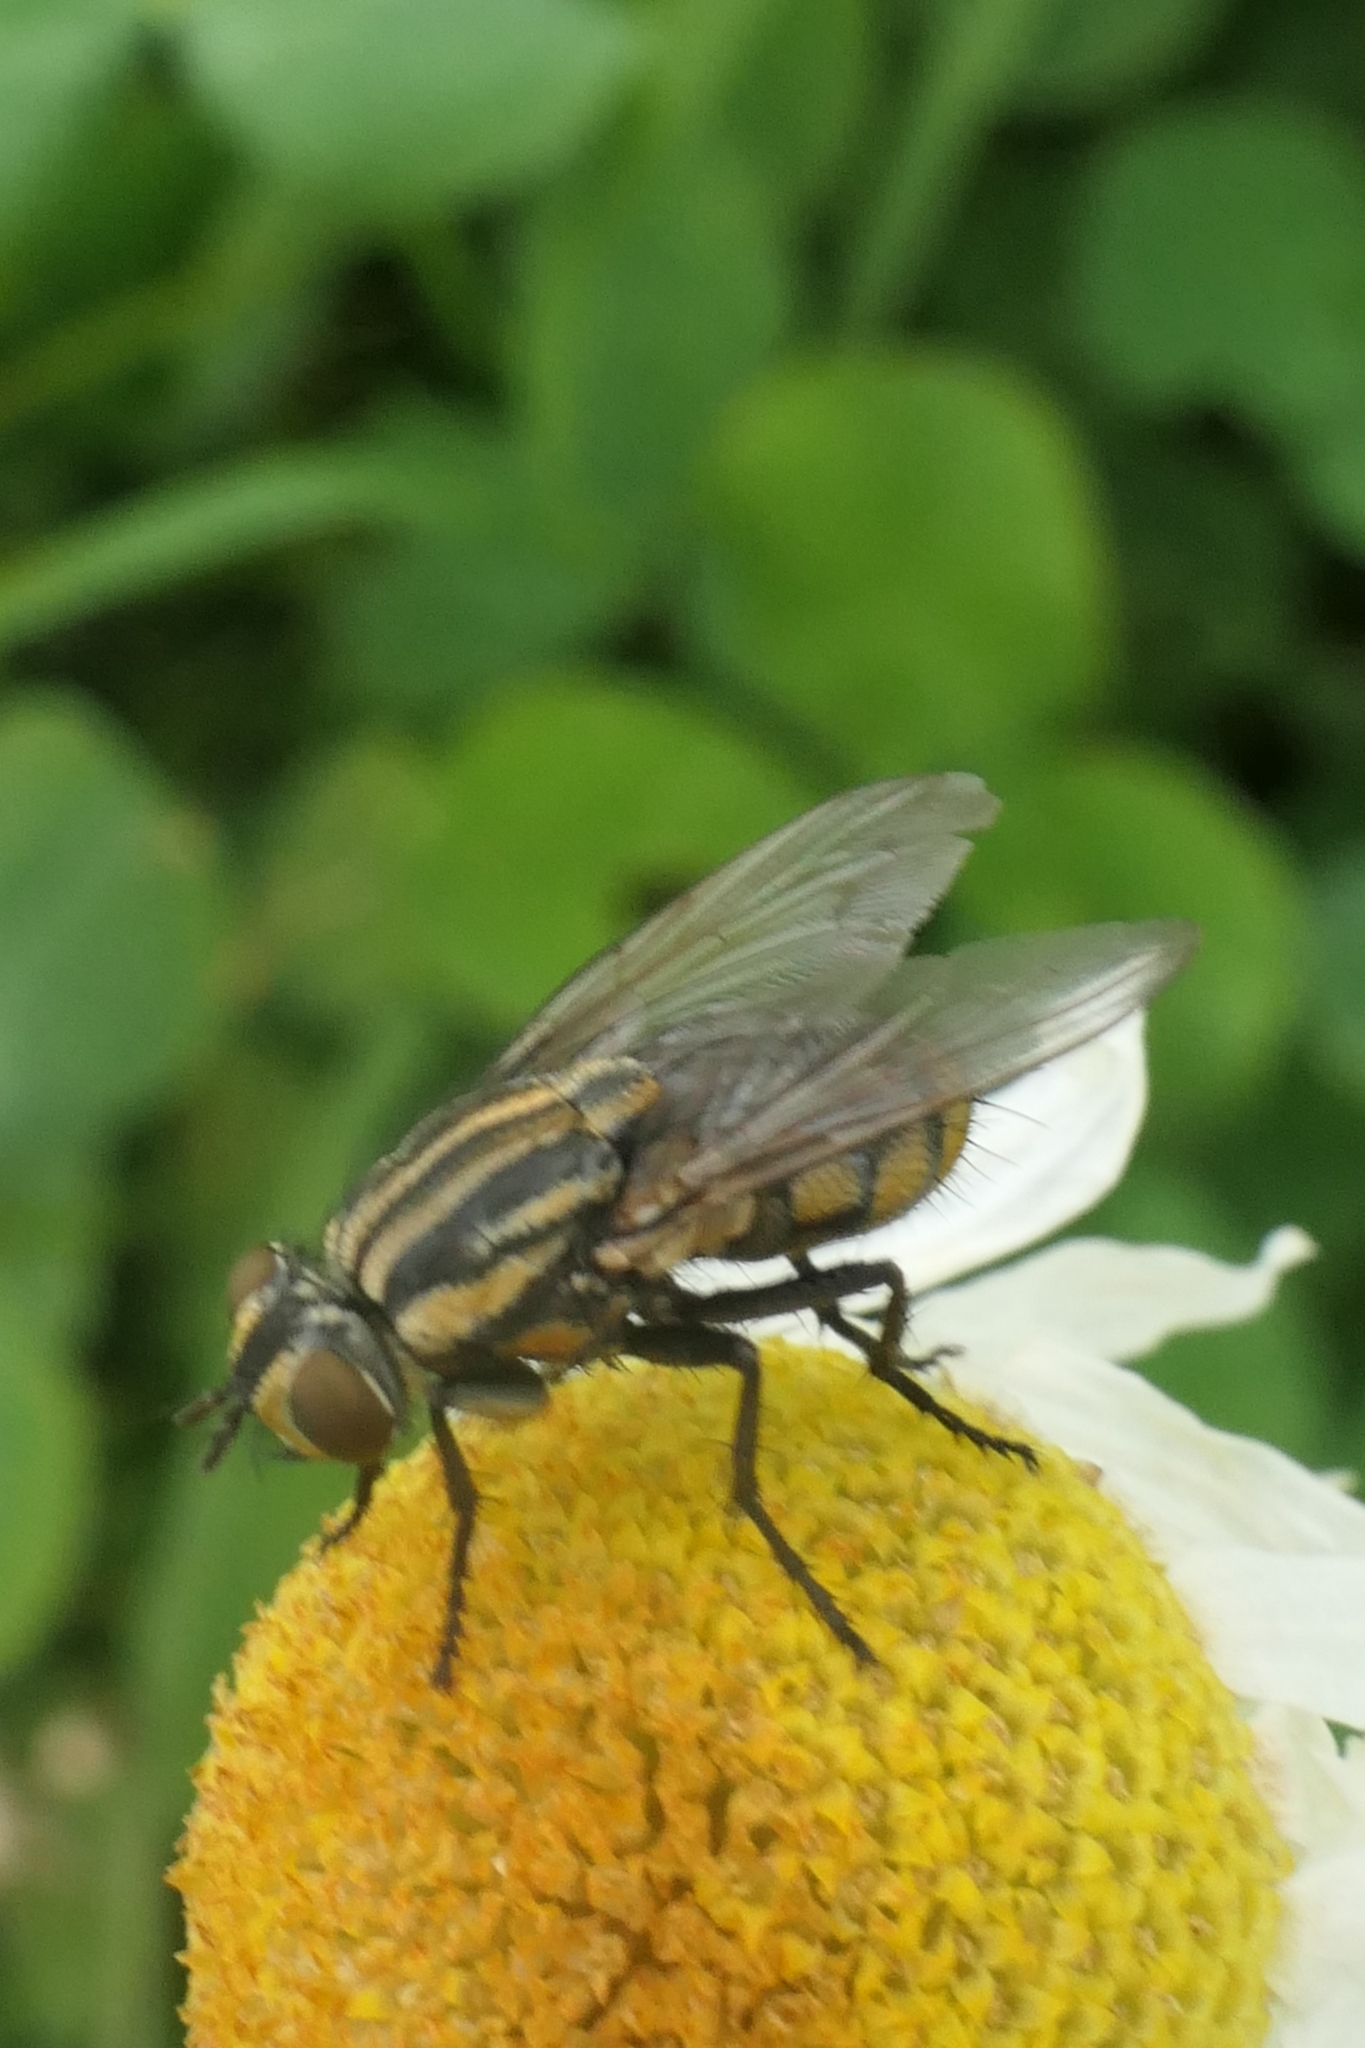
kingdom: Animalia
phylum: Arthropoda
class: Insecta
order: Diptera
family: Sarcophagidae
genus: Oxysarcodexia
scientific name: Oxysarcodexia varia
